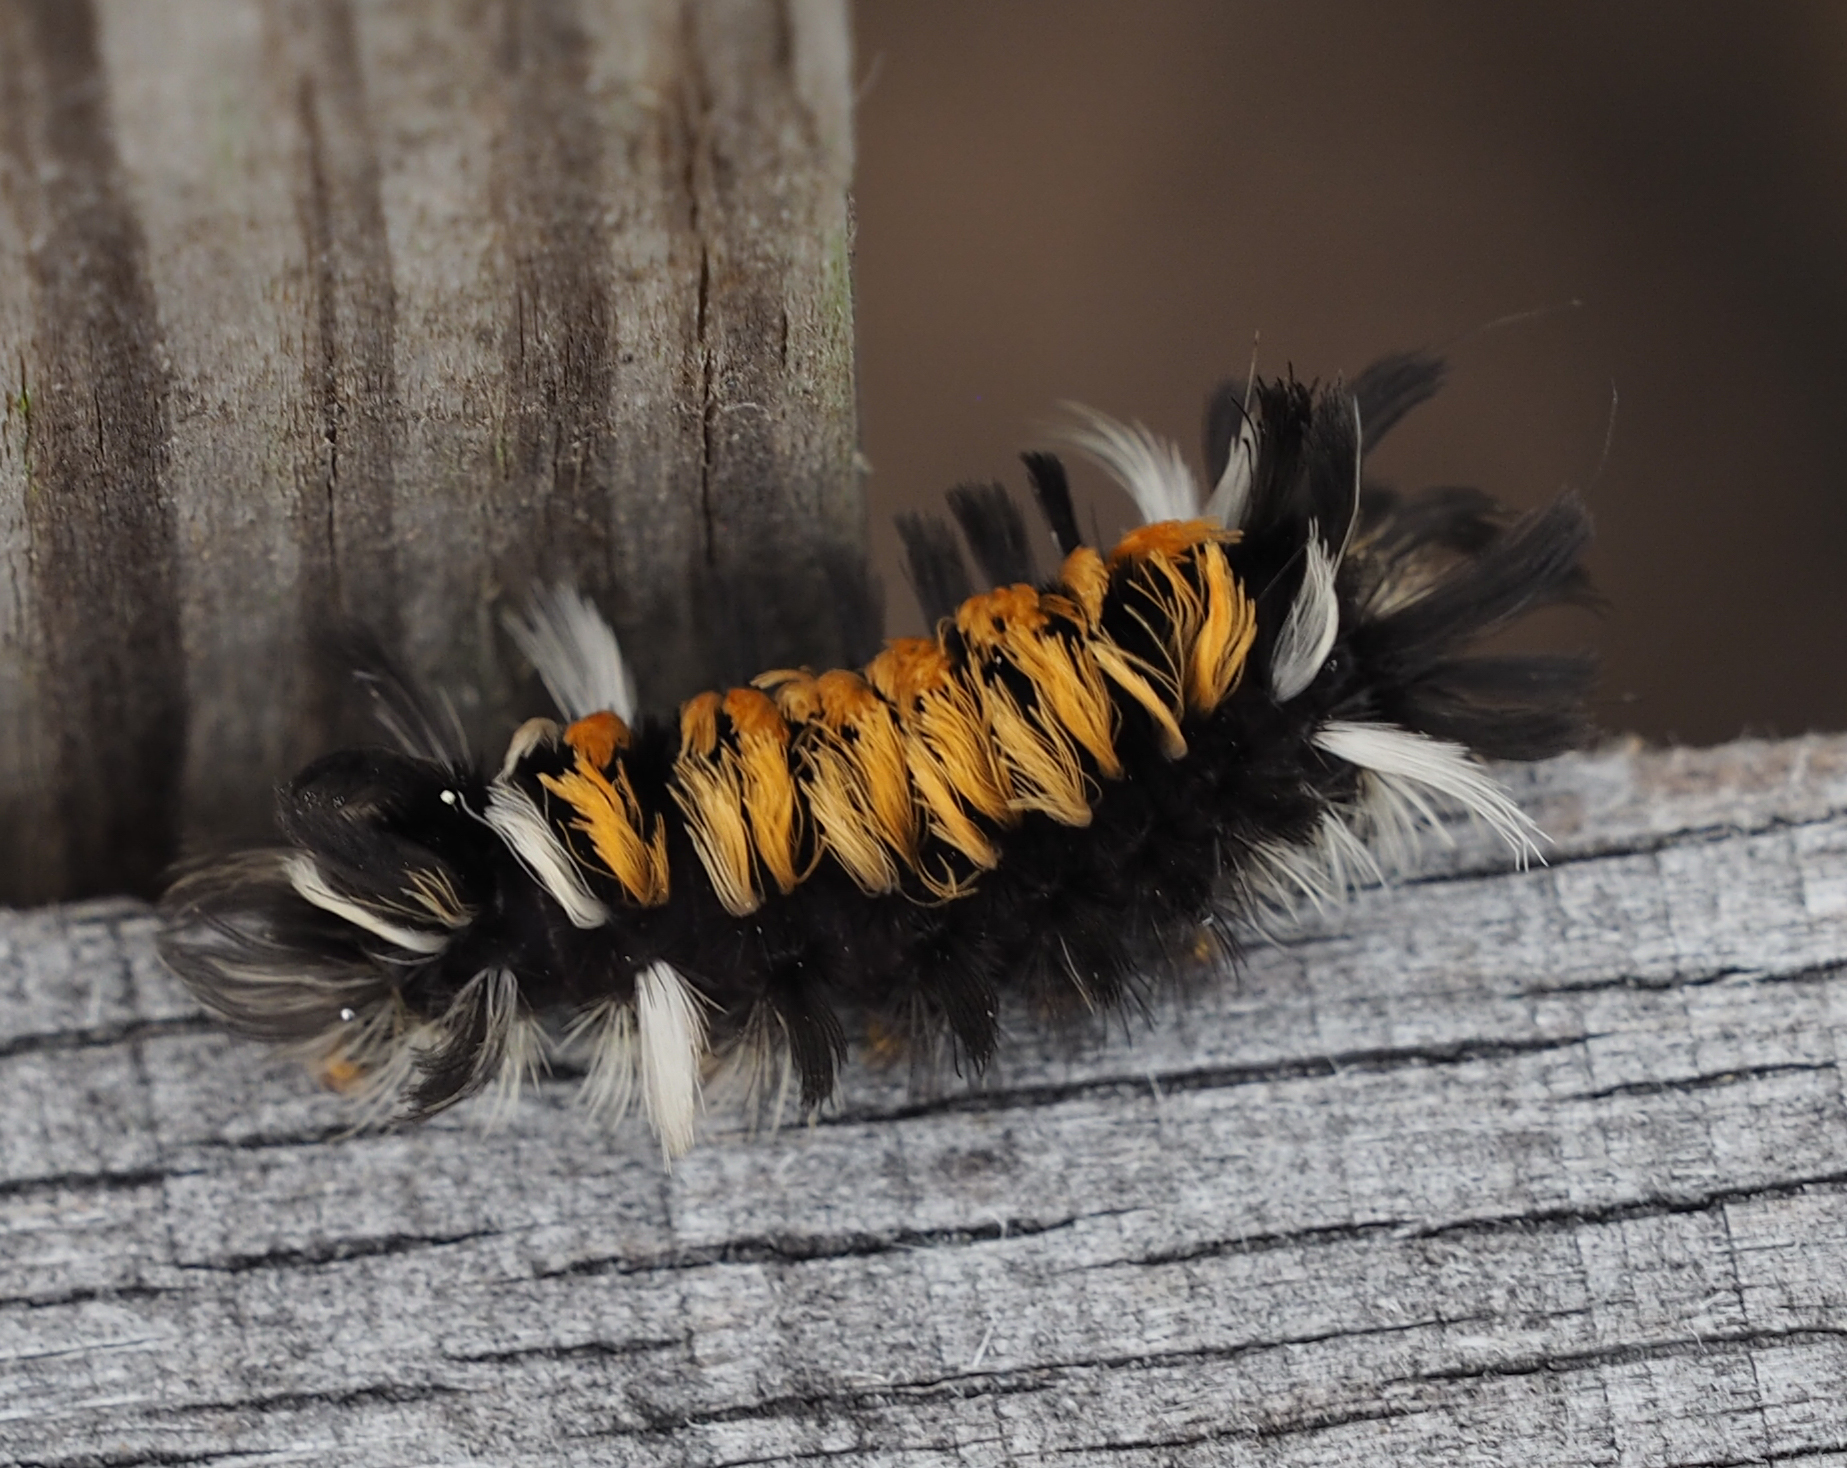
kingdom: Animalia
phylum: Arthropoda
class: Insecta
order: Lepidoptera
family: Erebidae
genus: Euchaetes
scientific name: Euchaetes egle
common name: Milkweed tussock moth
